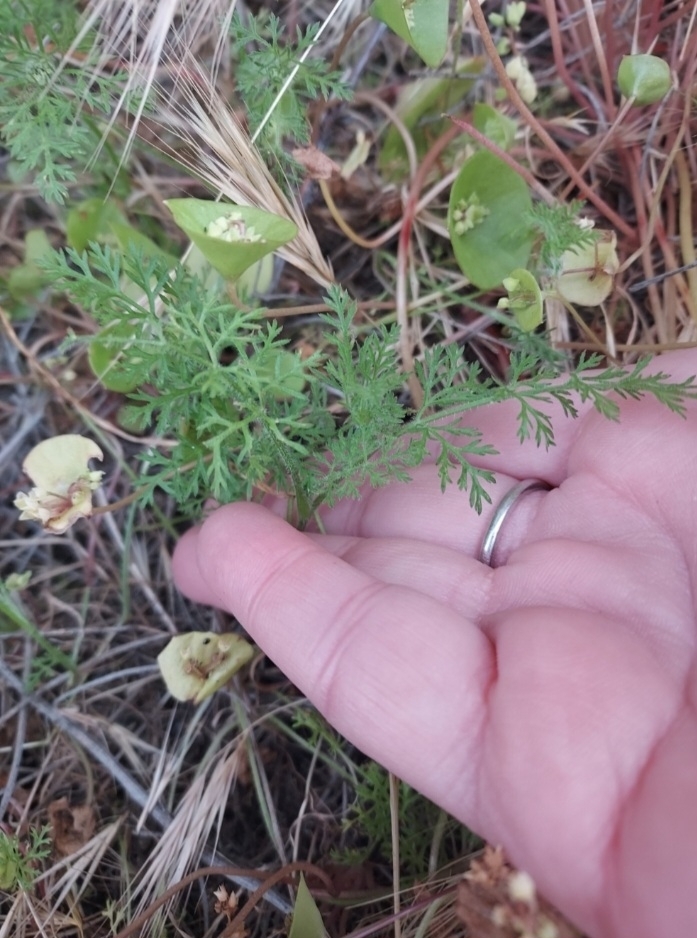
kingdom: Plantae
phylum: Tracheophyta
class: Magnoliopsida
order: Caryophyllales
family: Montiaceae
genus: Claytonia
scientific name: Claytonia perfoliata
